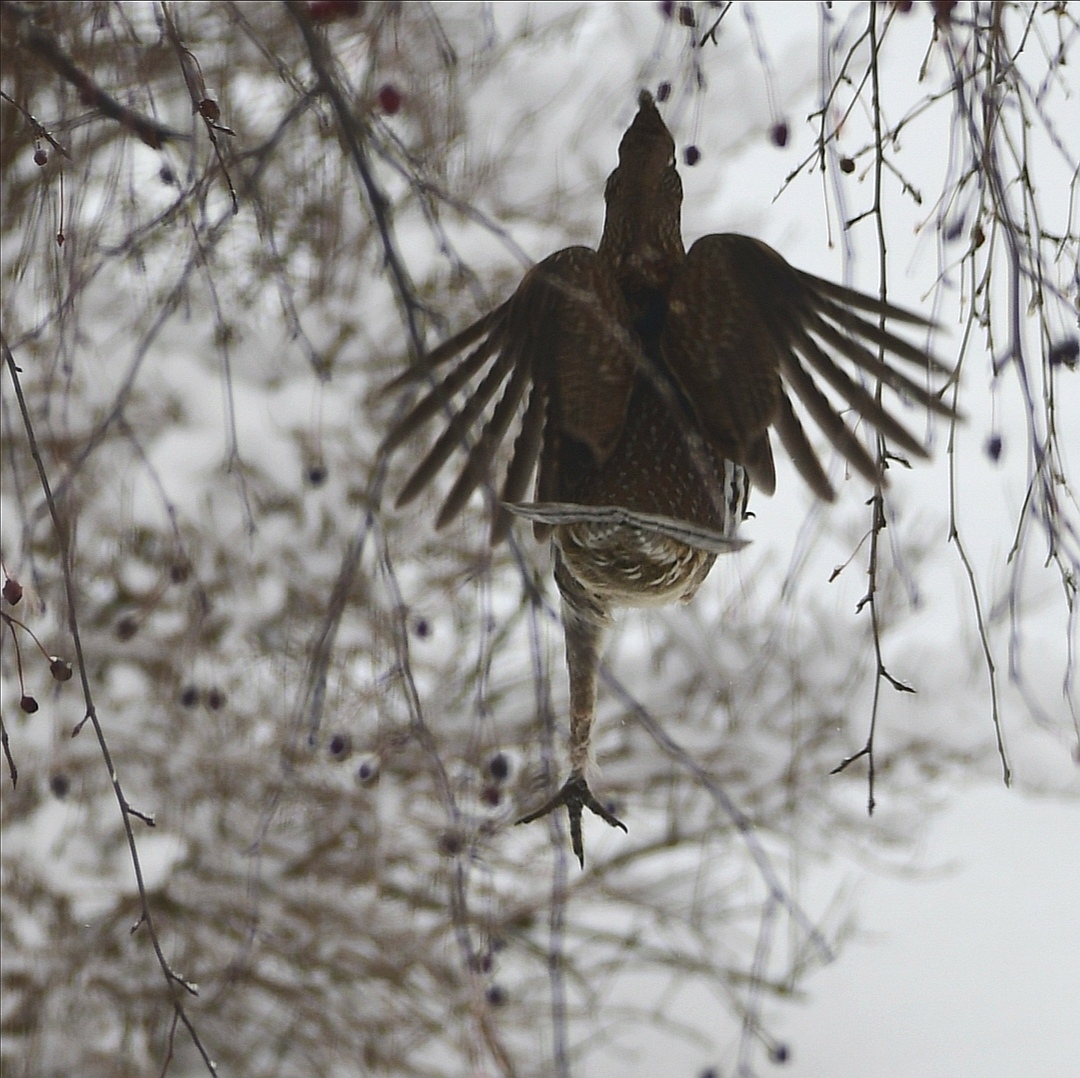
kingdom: Animalia
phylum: Chordata
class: Aves
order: Galliformes
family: Phasianidae
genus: Bonasa
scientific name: Bonasa umbellus
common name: Ruffed grouse
